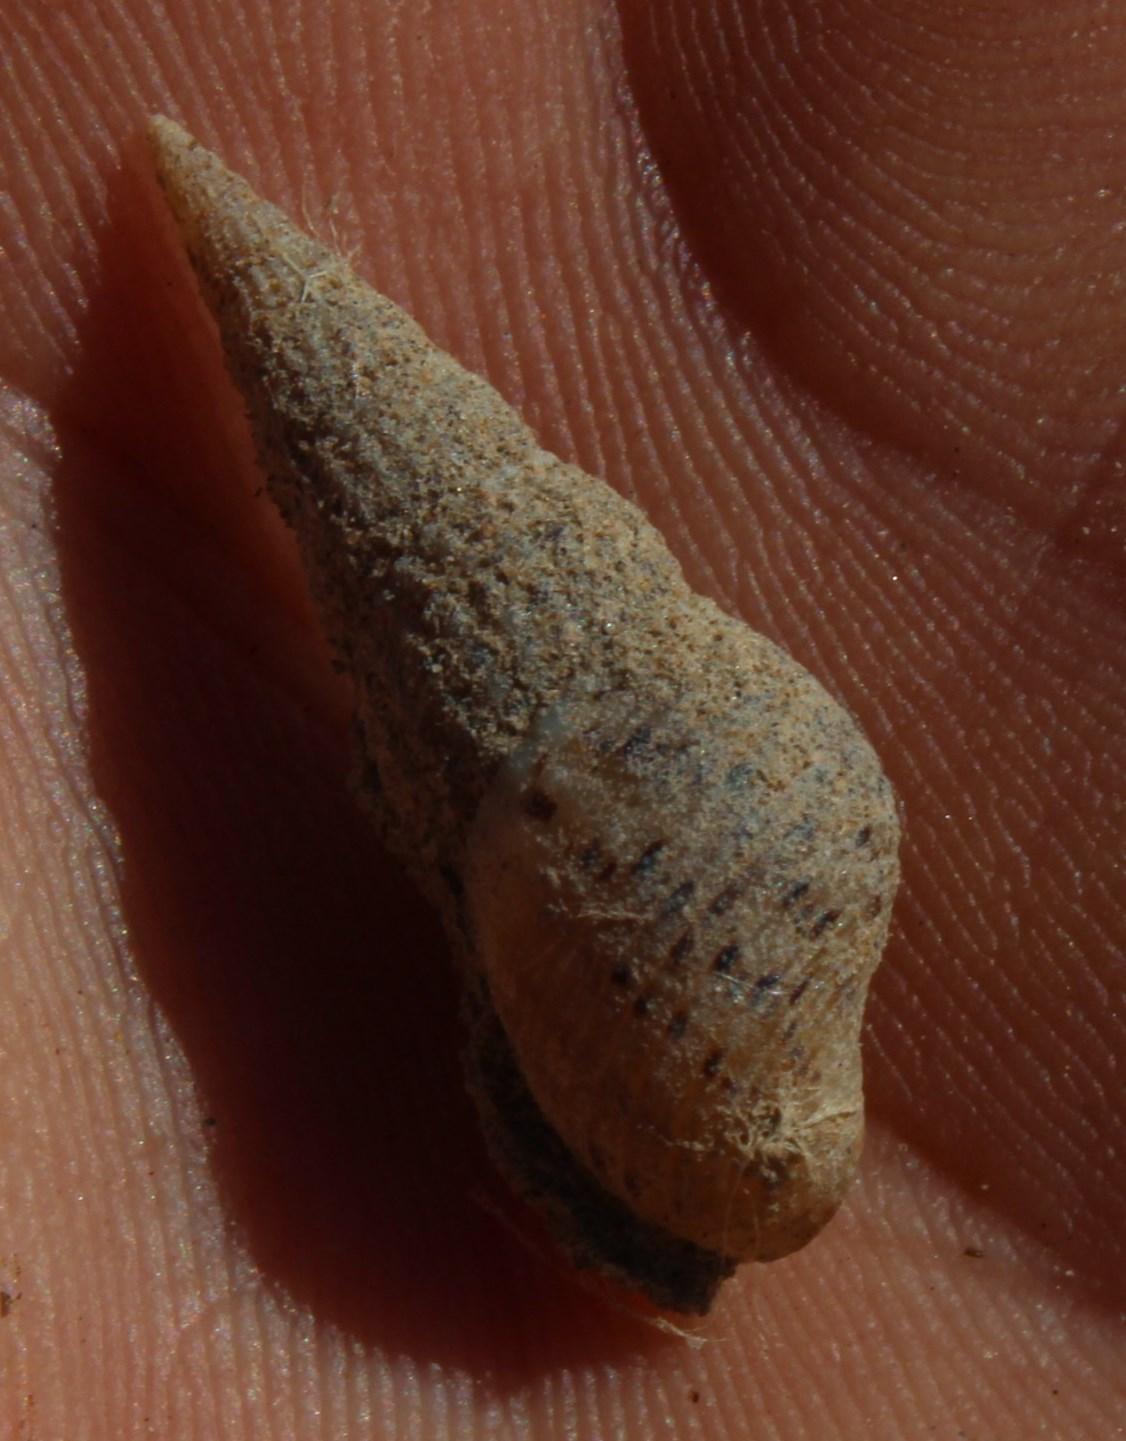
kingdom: Animalia
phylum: Mollusca
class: Gastropoda
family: Thiaridae
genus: Melanoides
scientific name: Melanoides tuberculata
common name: Red-rim melania
